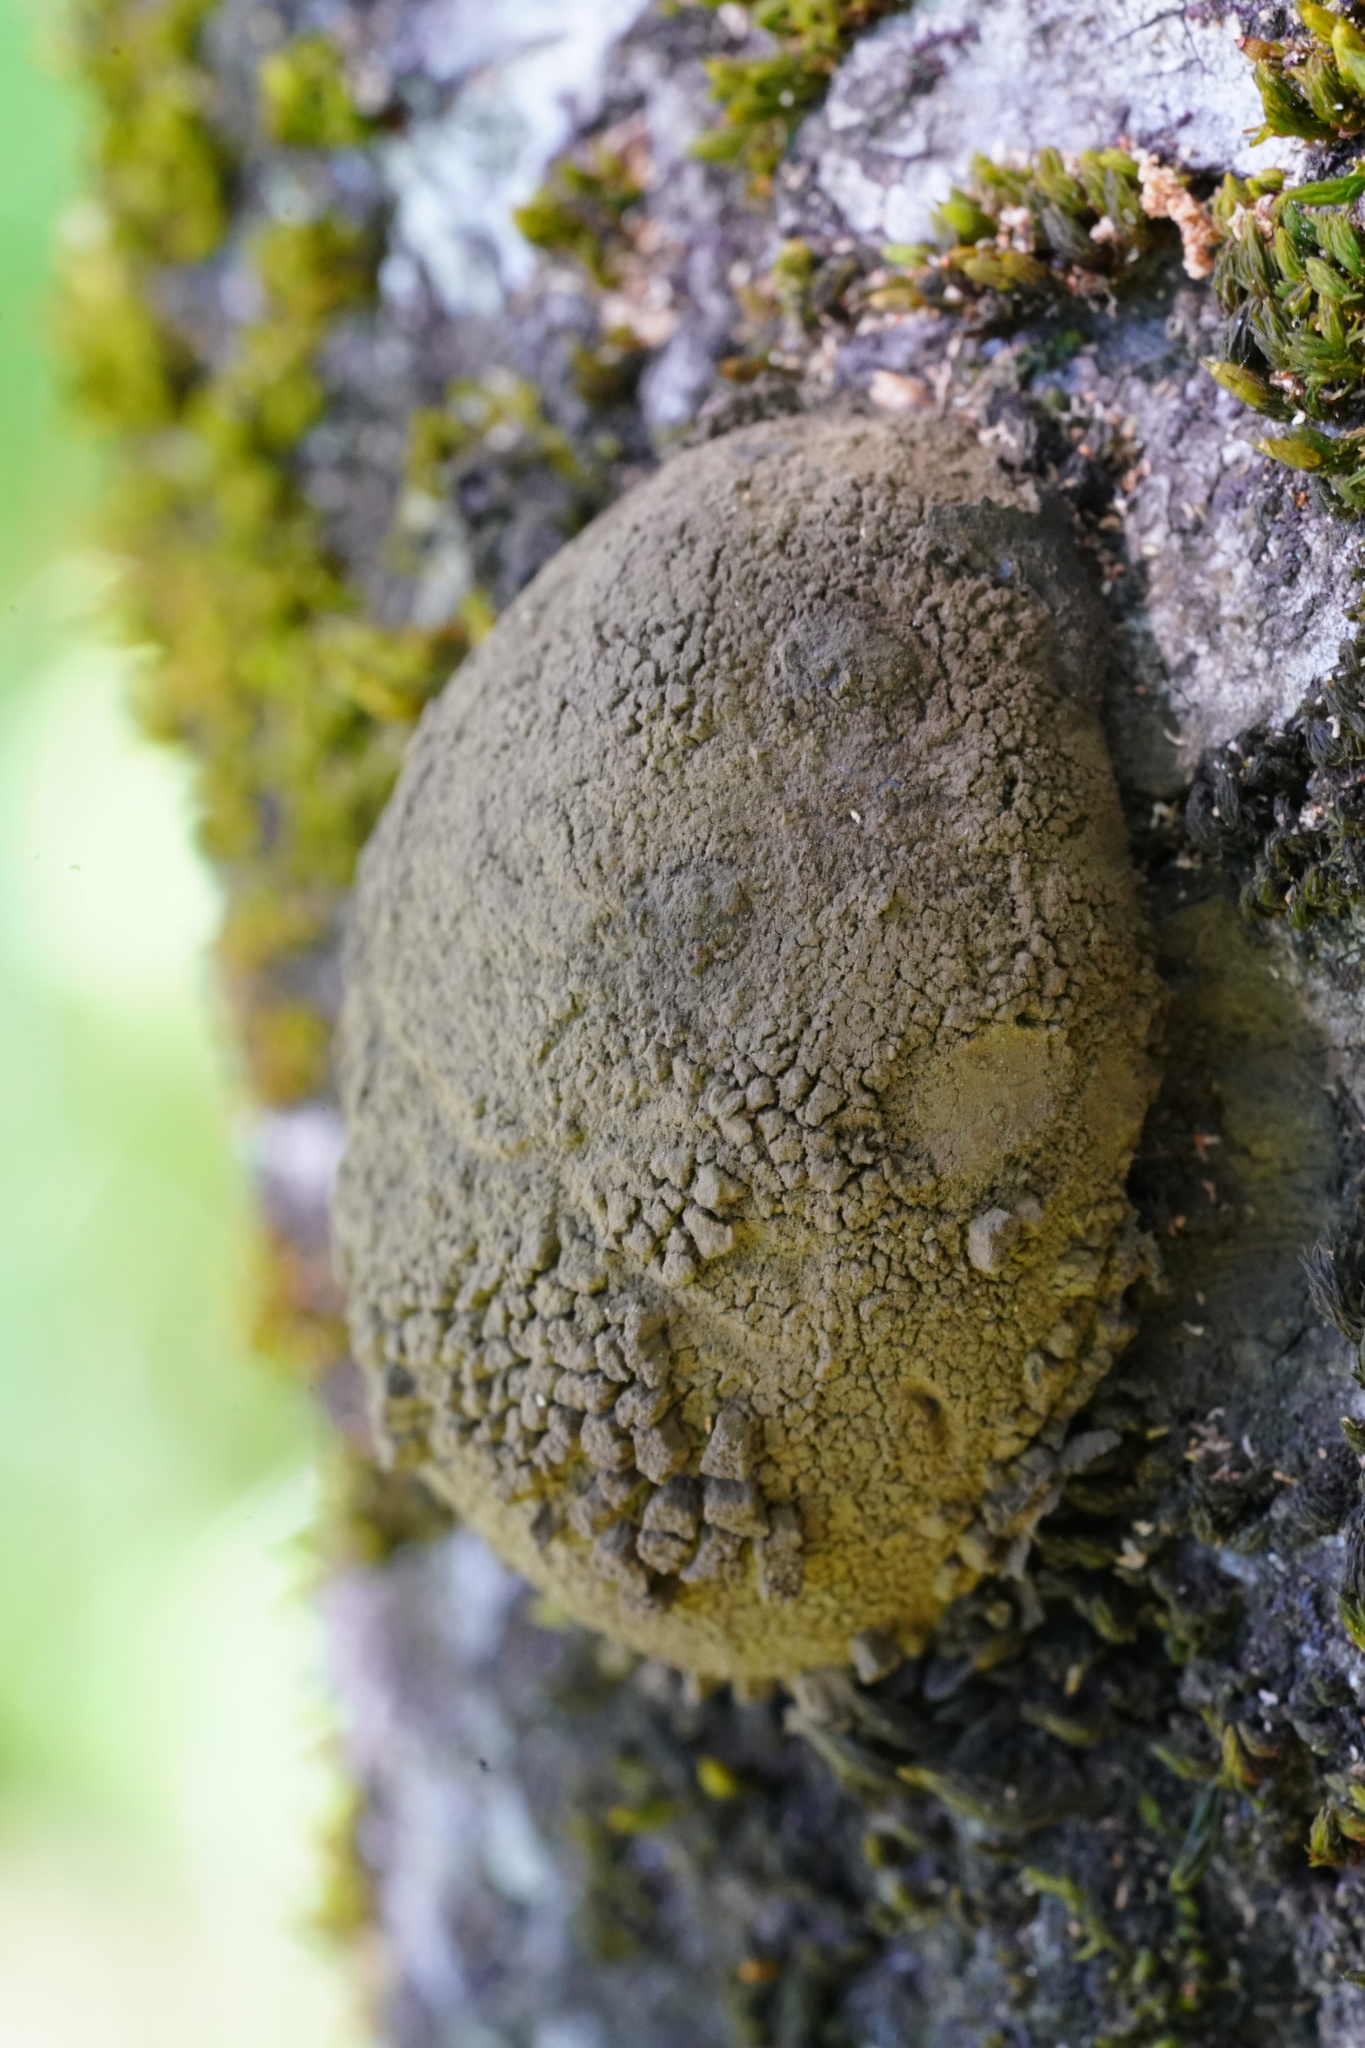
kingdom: Fungi
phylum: Ascomycota
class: Sordariomycetes
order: Xylariales
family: Hypoxylaceae
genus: Annulohypoxylon
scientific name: Annulohypoxylon thouarsianum
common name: Cramp balls
